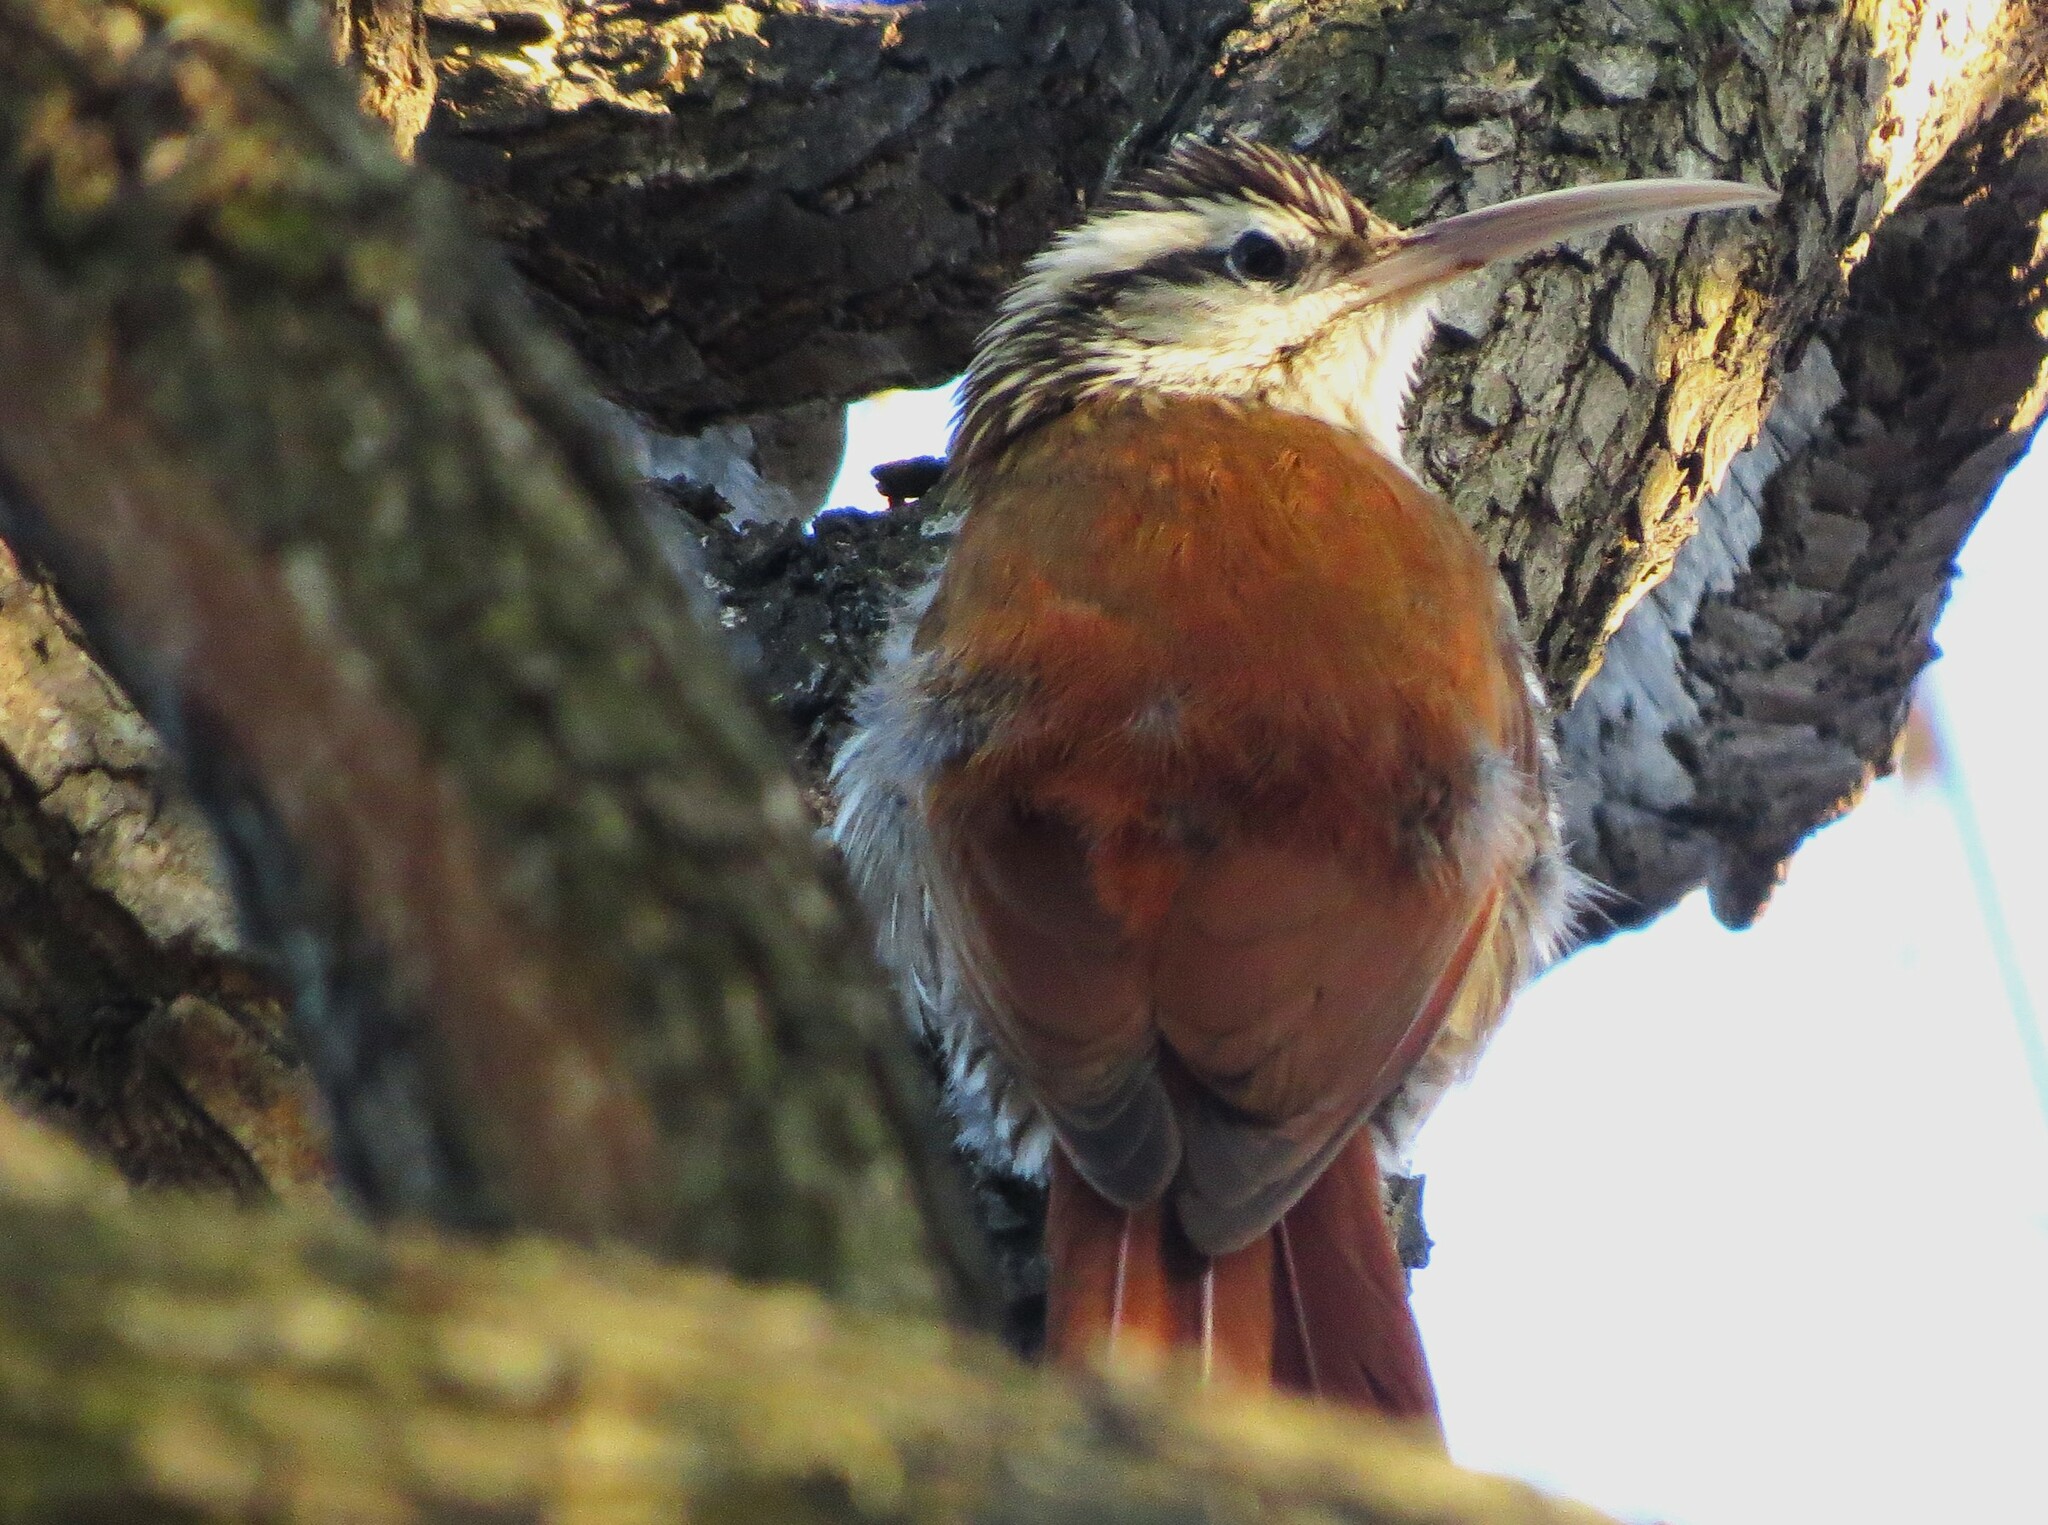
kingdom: Animalia
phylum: Chordata
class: Aves
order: Passeriformes
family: Furnariidae
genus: Lepidocolaptes
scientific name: Lepidocolaptes angustirostris
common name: Narrow-billed woodcreeper
